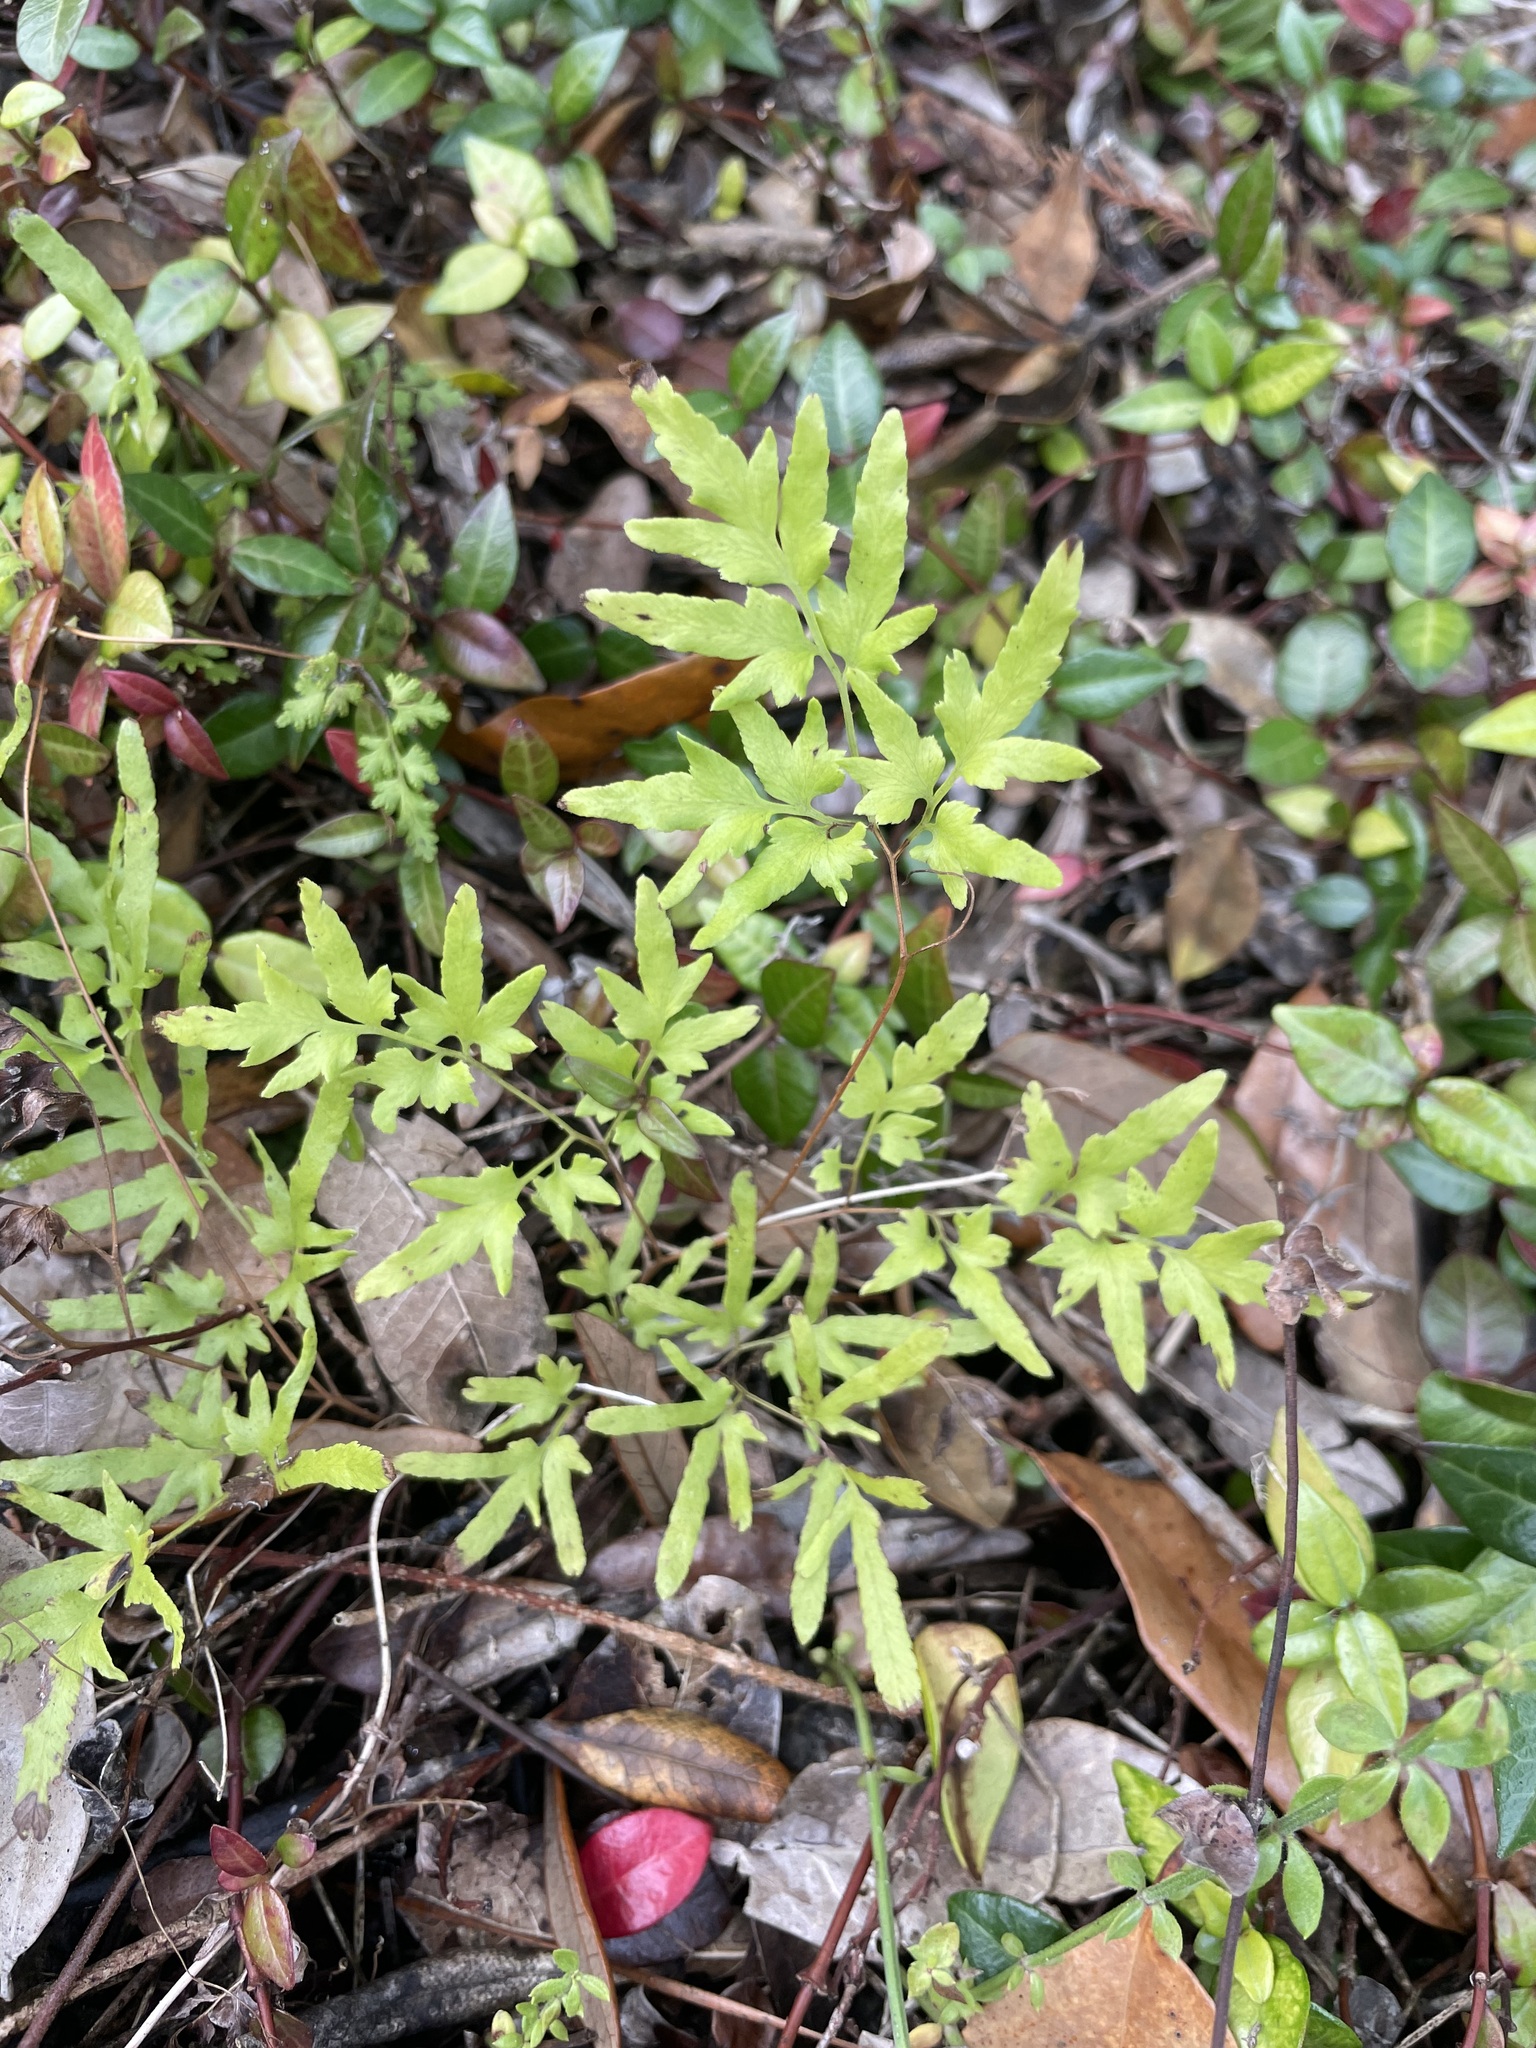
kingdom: Plantae
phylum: Tracheophyta
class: Polypodiopsida
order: Schizaeales
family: Lygodiaceae
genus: Lygodium
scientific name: Lygodium japonicum
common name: Japanese climbing fern
